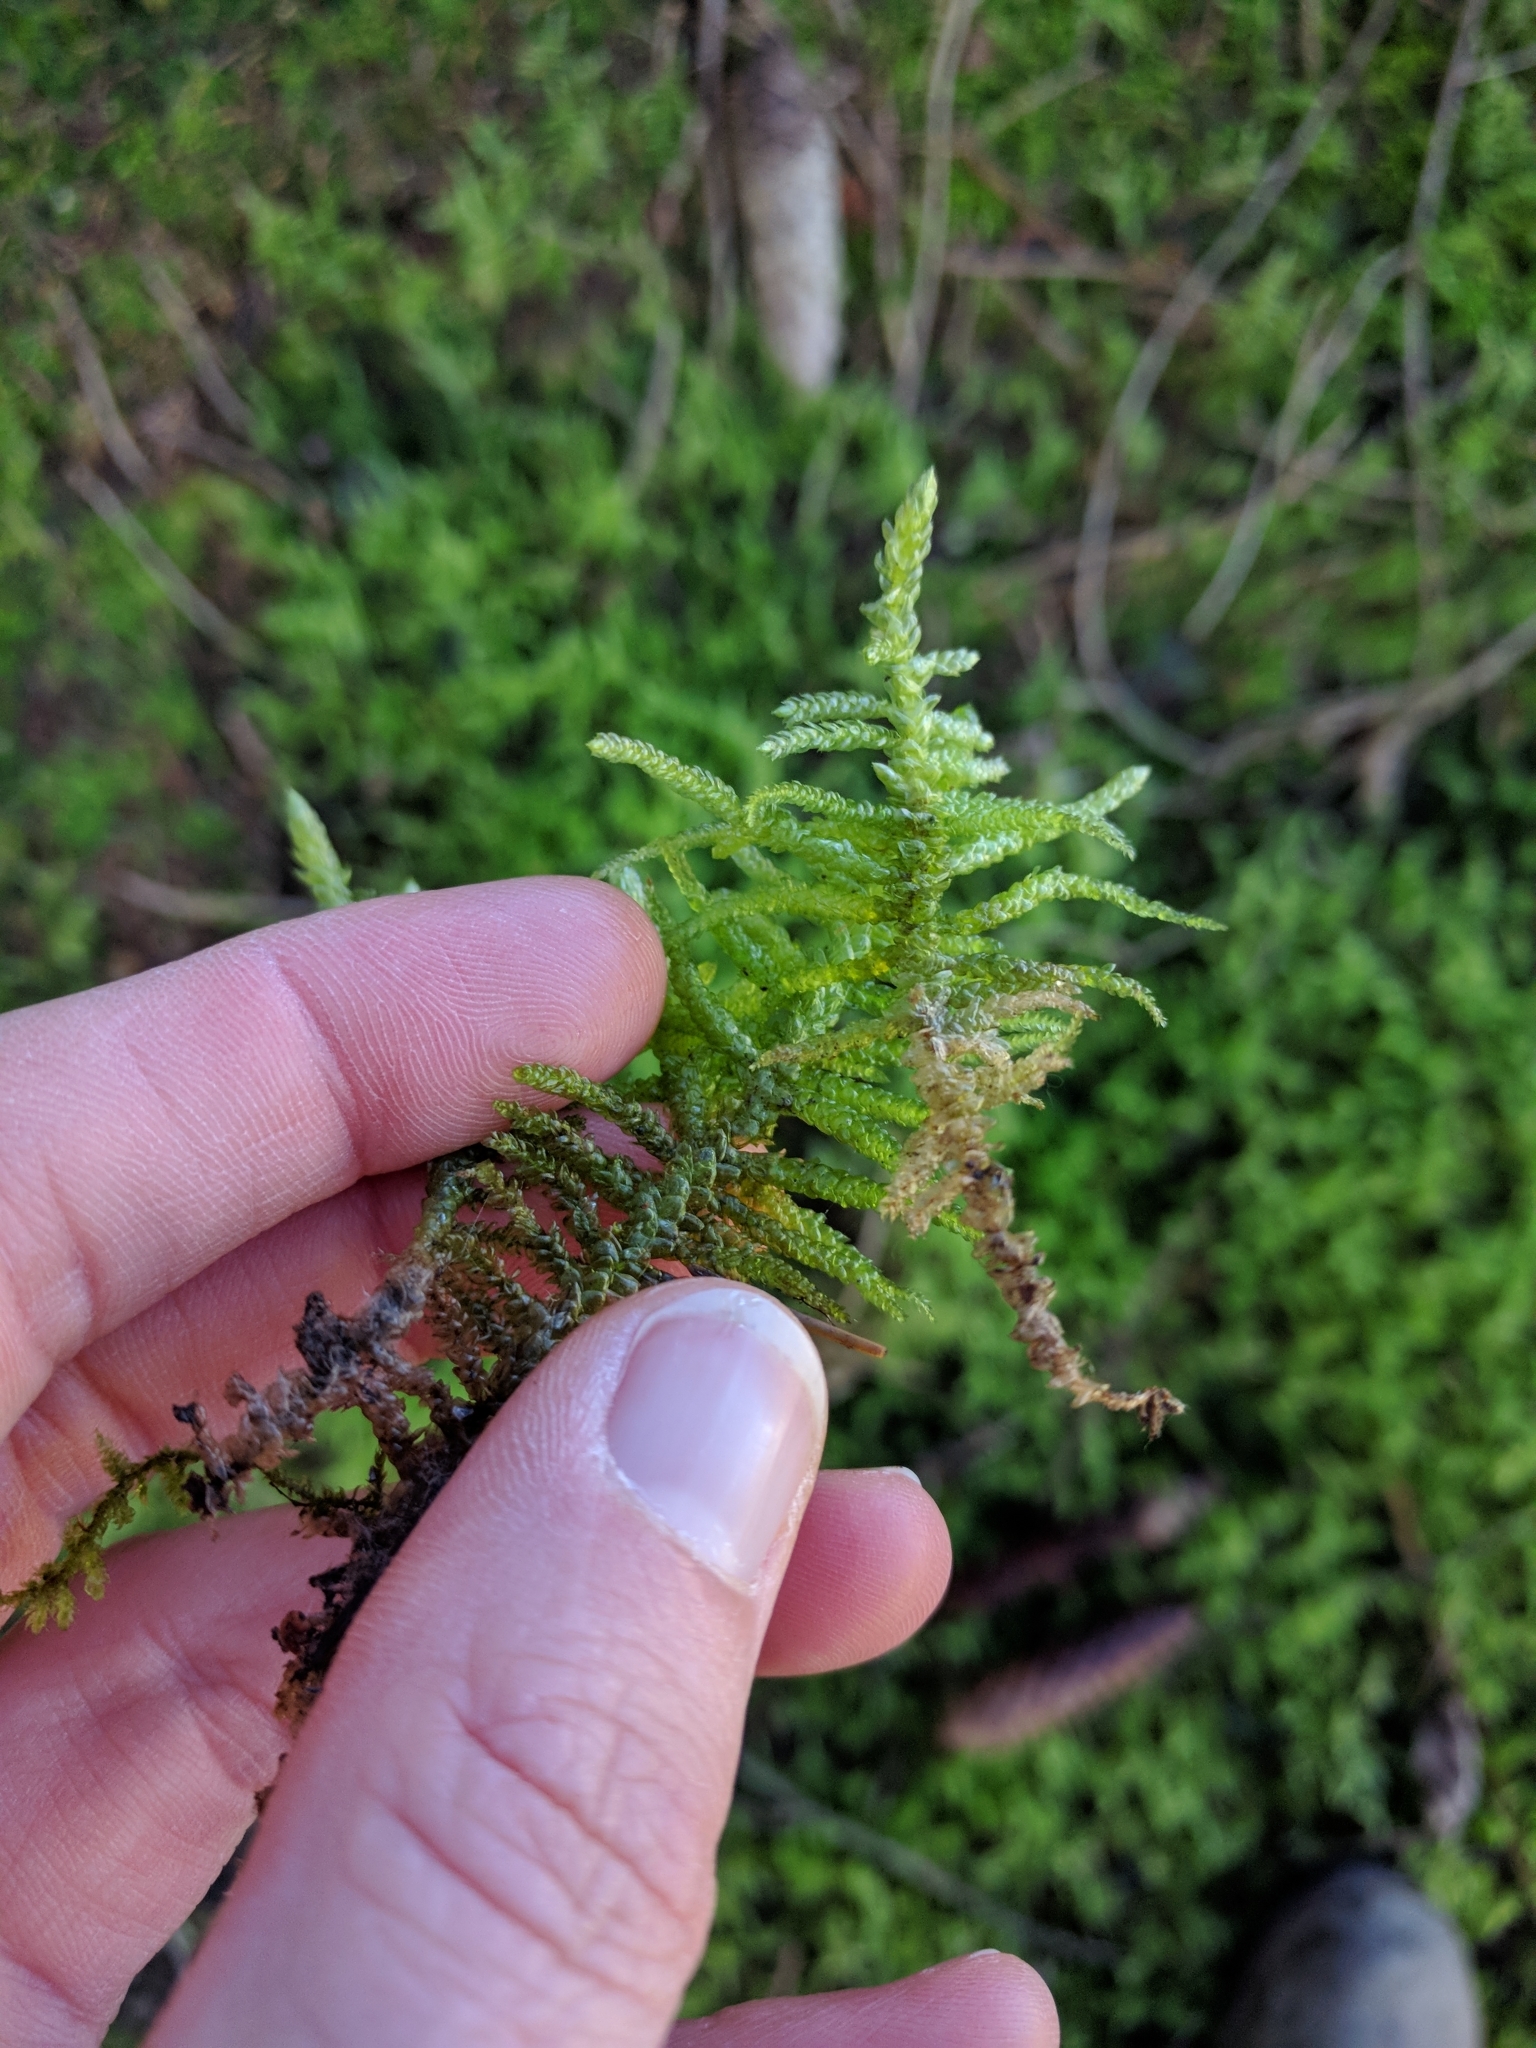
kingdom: Plantae
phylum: Bryophyta
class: Bryopsida
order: Hypnales
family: Brachytheciaceae
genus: Pseudoscleropodium
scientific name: Pseudoscleropodium purum
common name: Neat feather-moss
